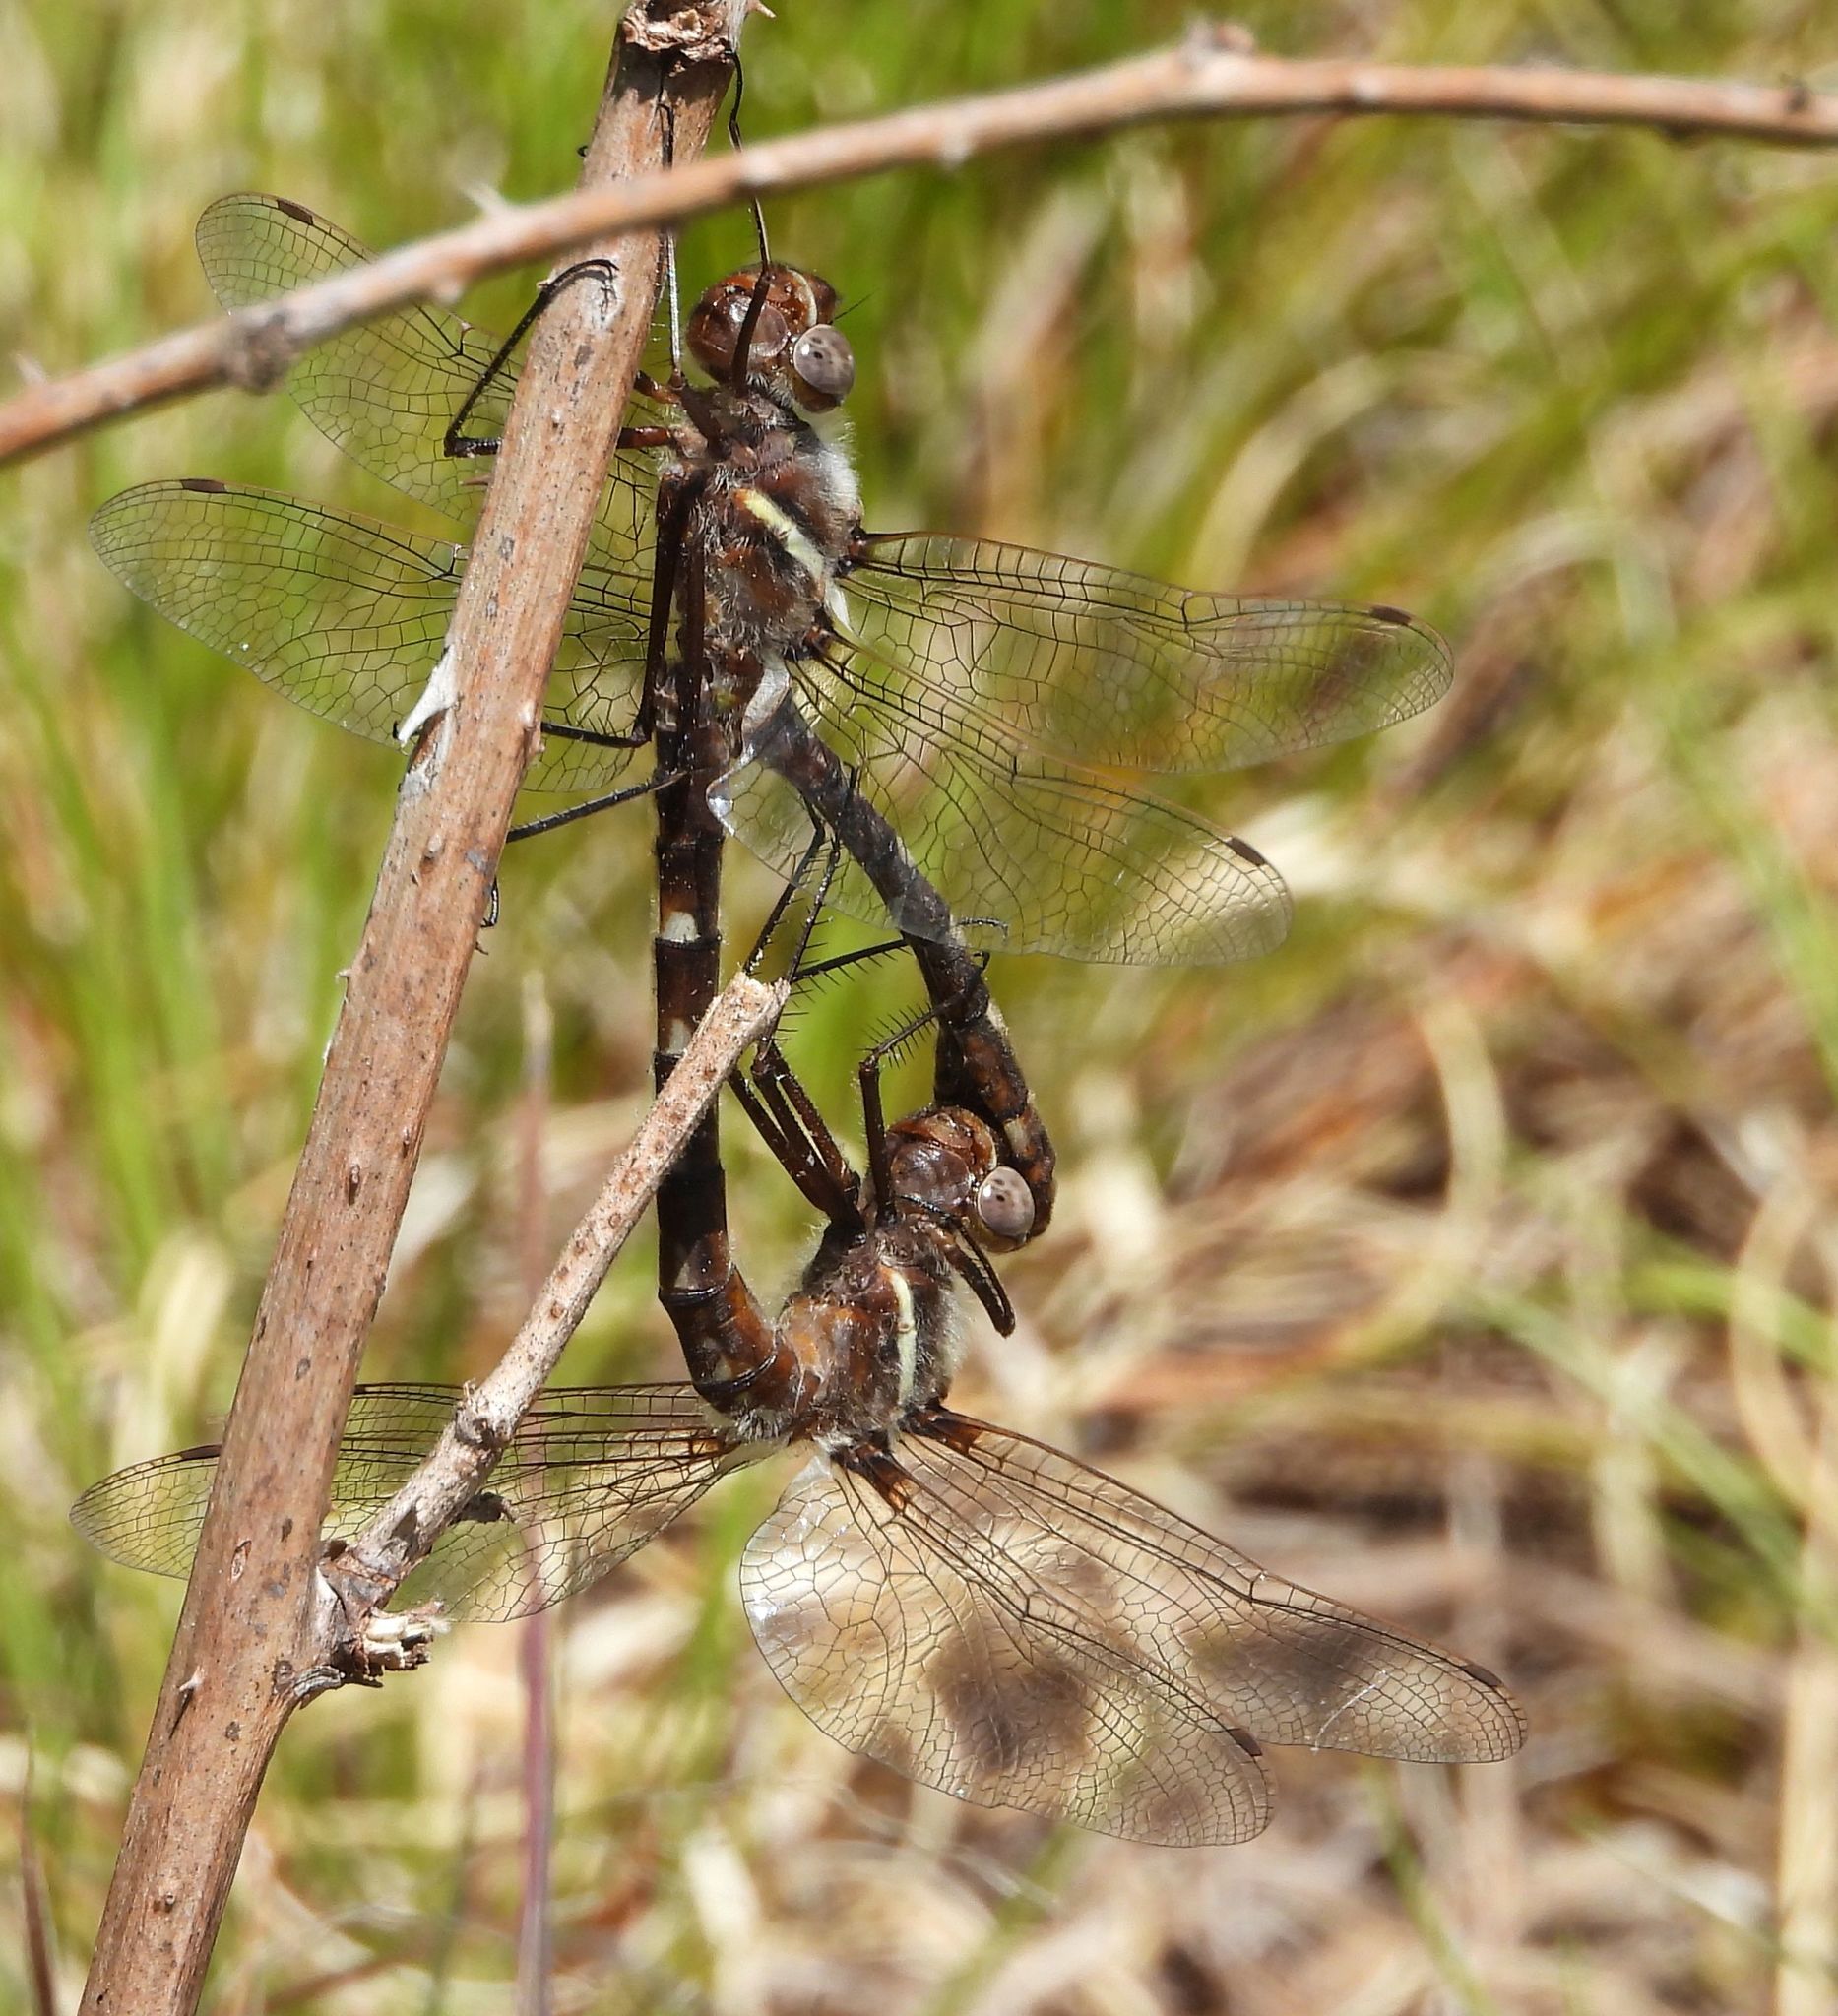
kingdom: Animalia
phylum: Arthropoda
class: Insecta
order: Odonata
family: Macromiidae
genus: Didymops
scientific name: Didymops transversa
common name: Stream cruiser
